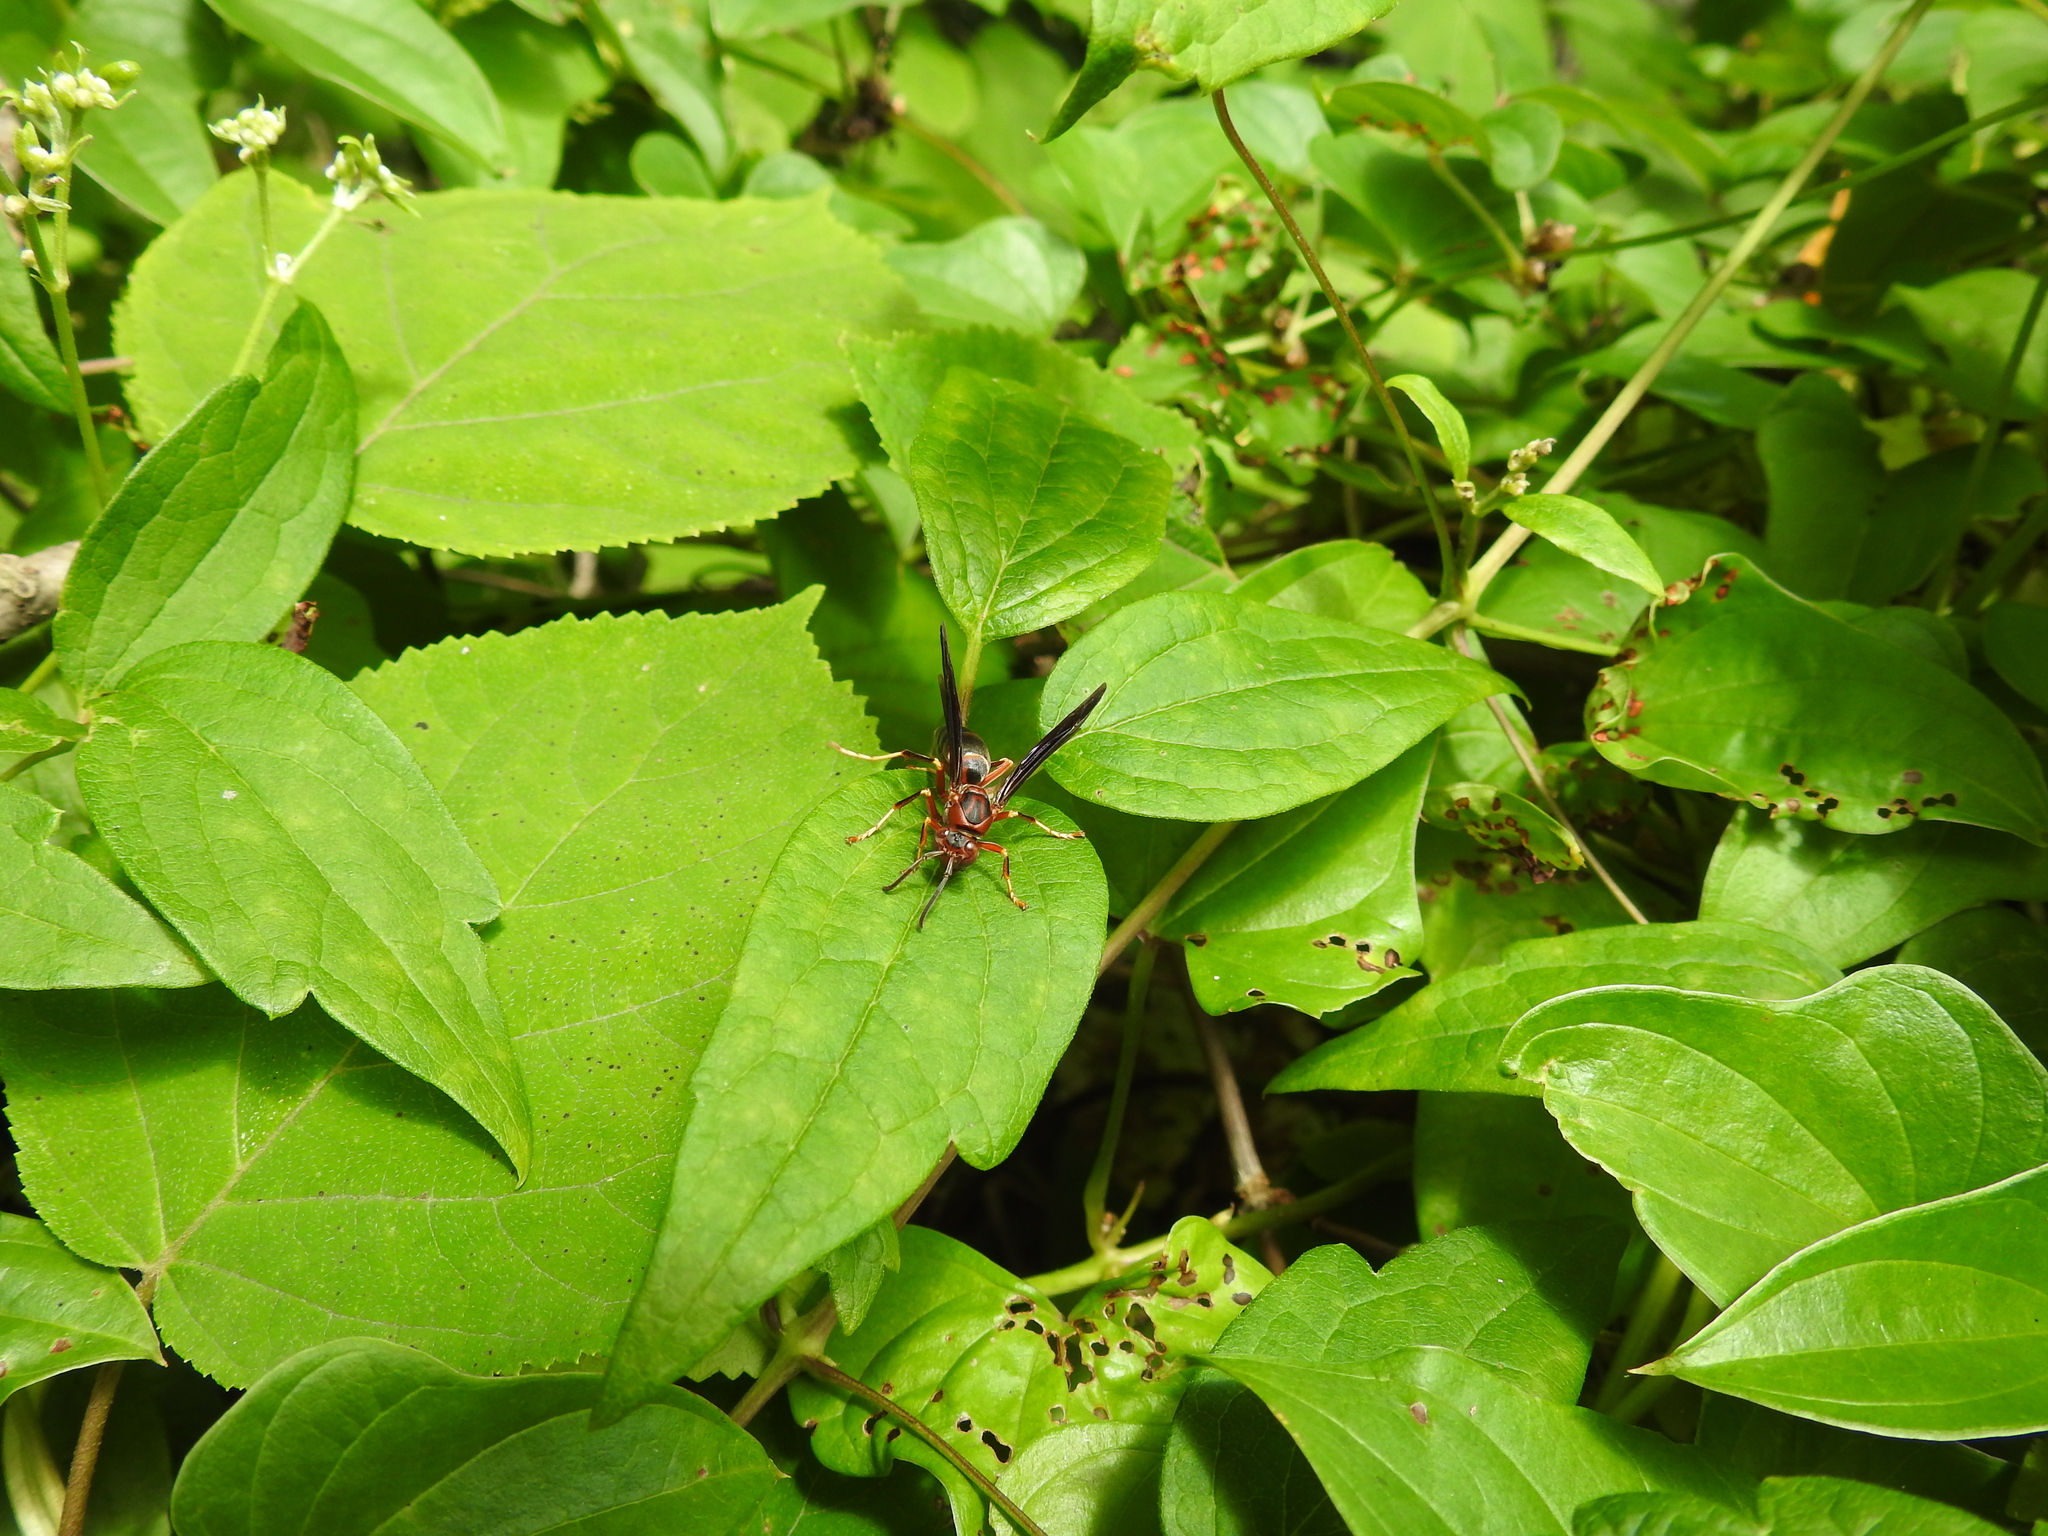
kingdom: Animalia
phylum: Arthropoda
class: Insecta
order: Hymenoptera
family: Eumenidae
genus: Polistes
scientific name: Polistes metricus
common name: Metric paper wasp
